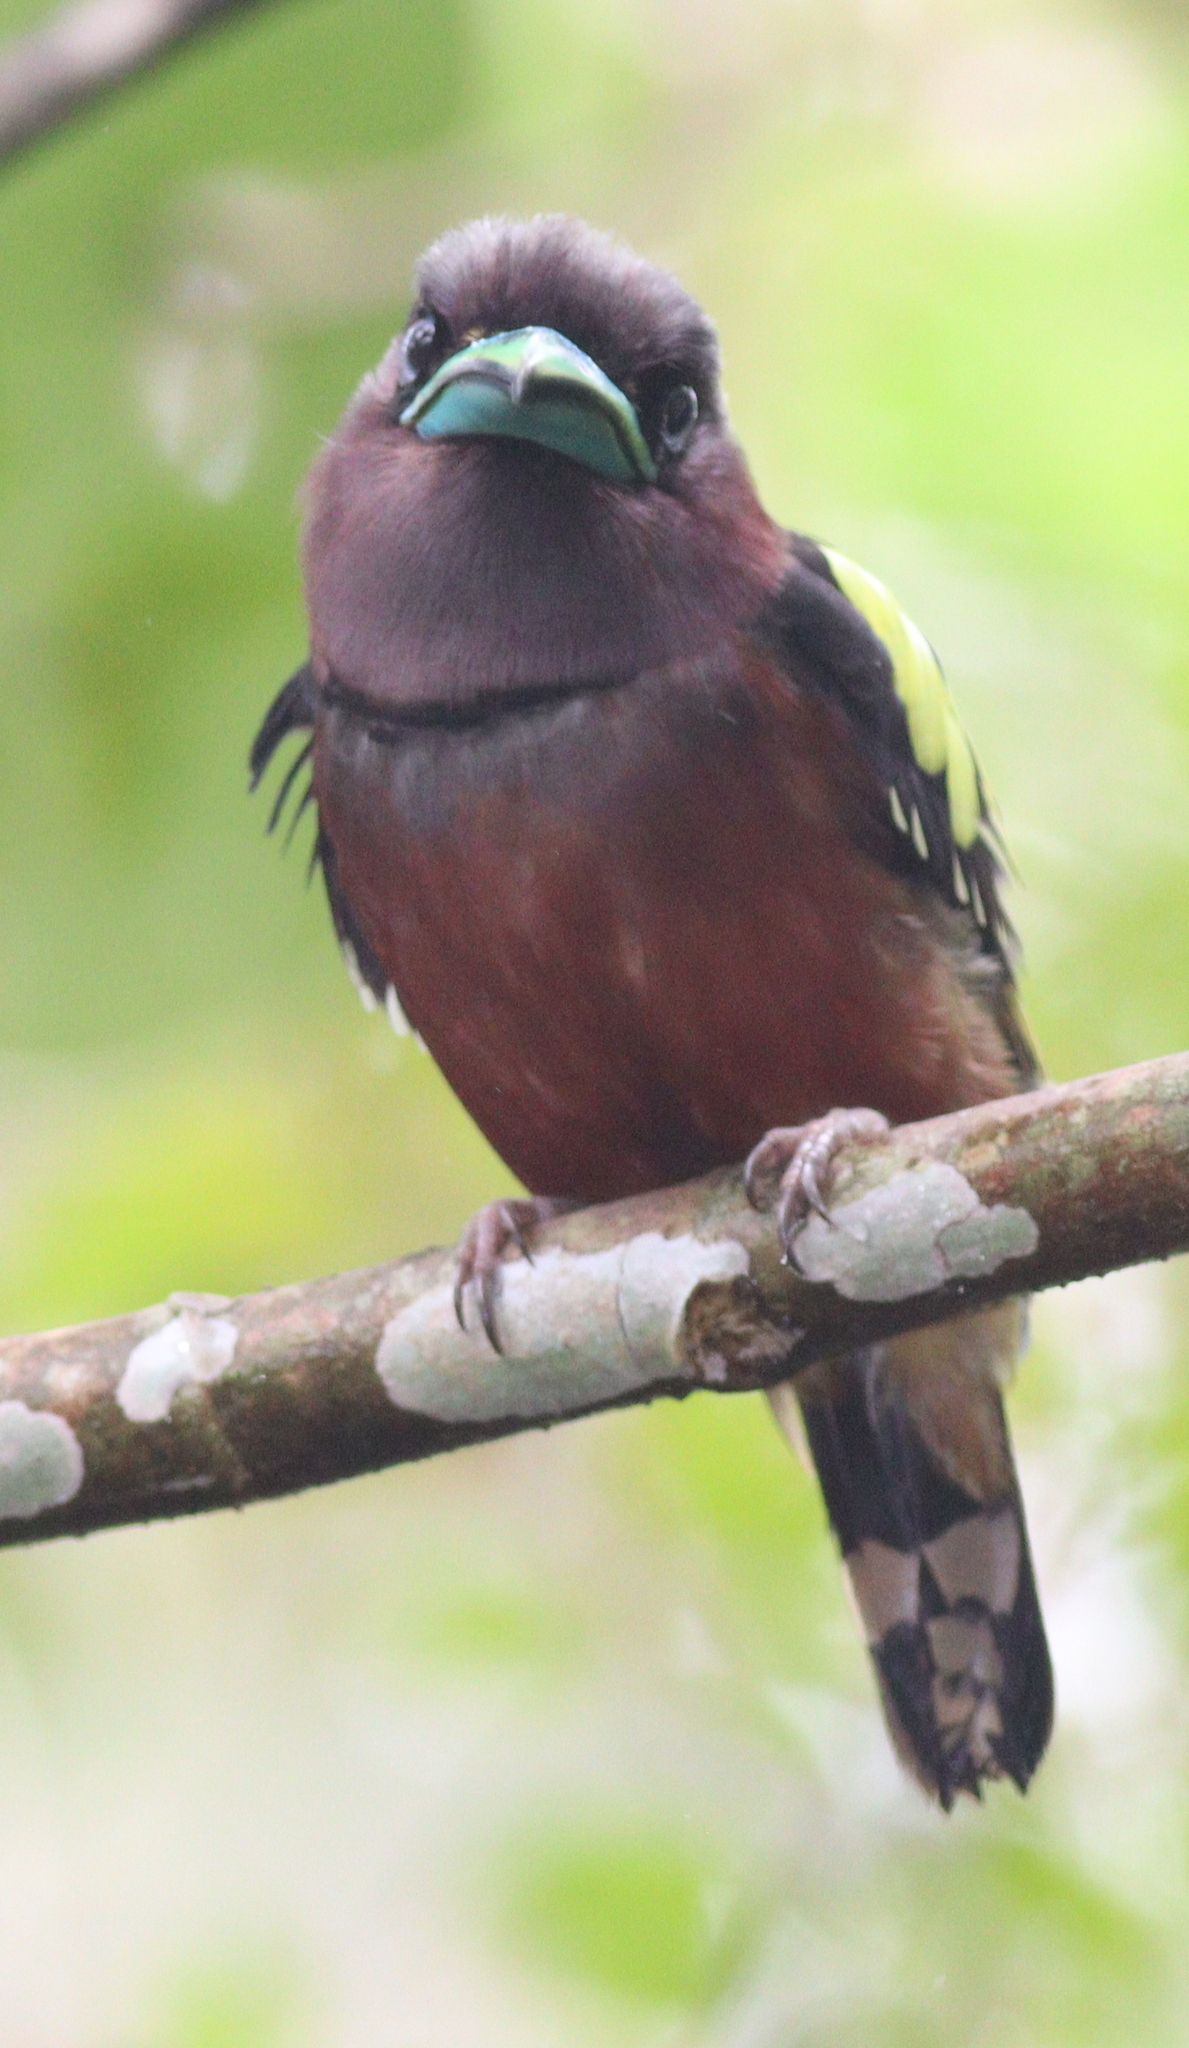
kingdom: Animalia
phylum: Chordata
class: Aves
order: Passeriformes
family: Eurylaimidae
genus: Eurylaimus
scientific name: Eurylaimus javanicus
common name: Banded broadbill
